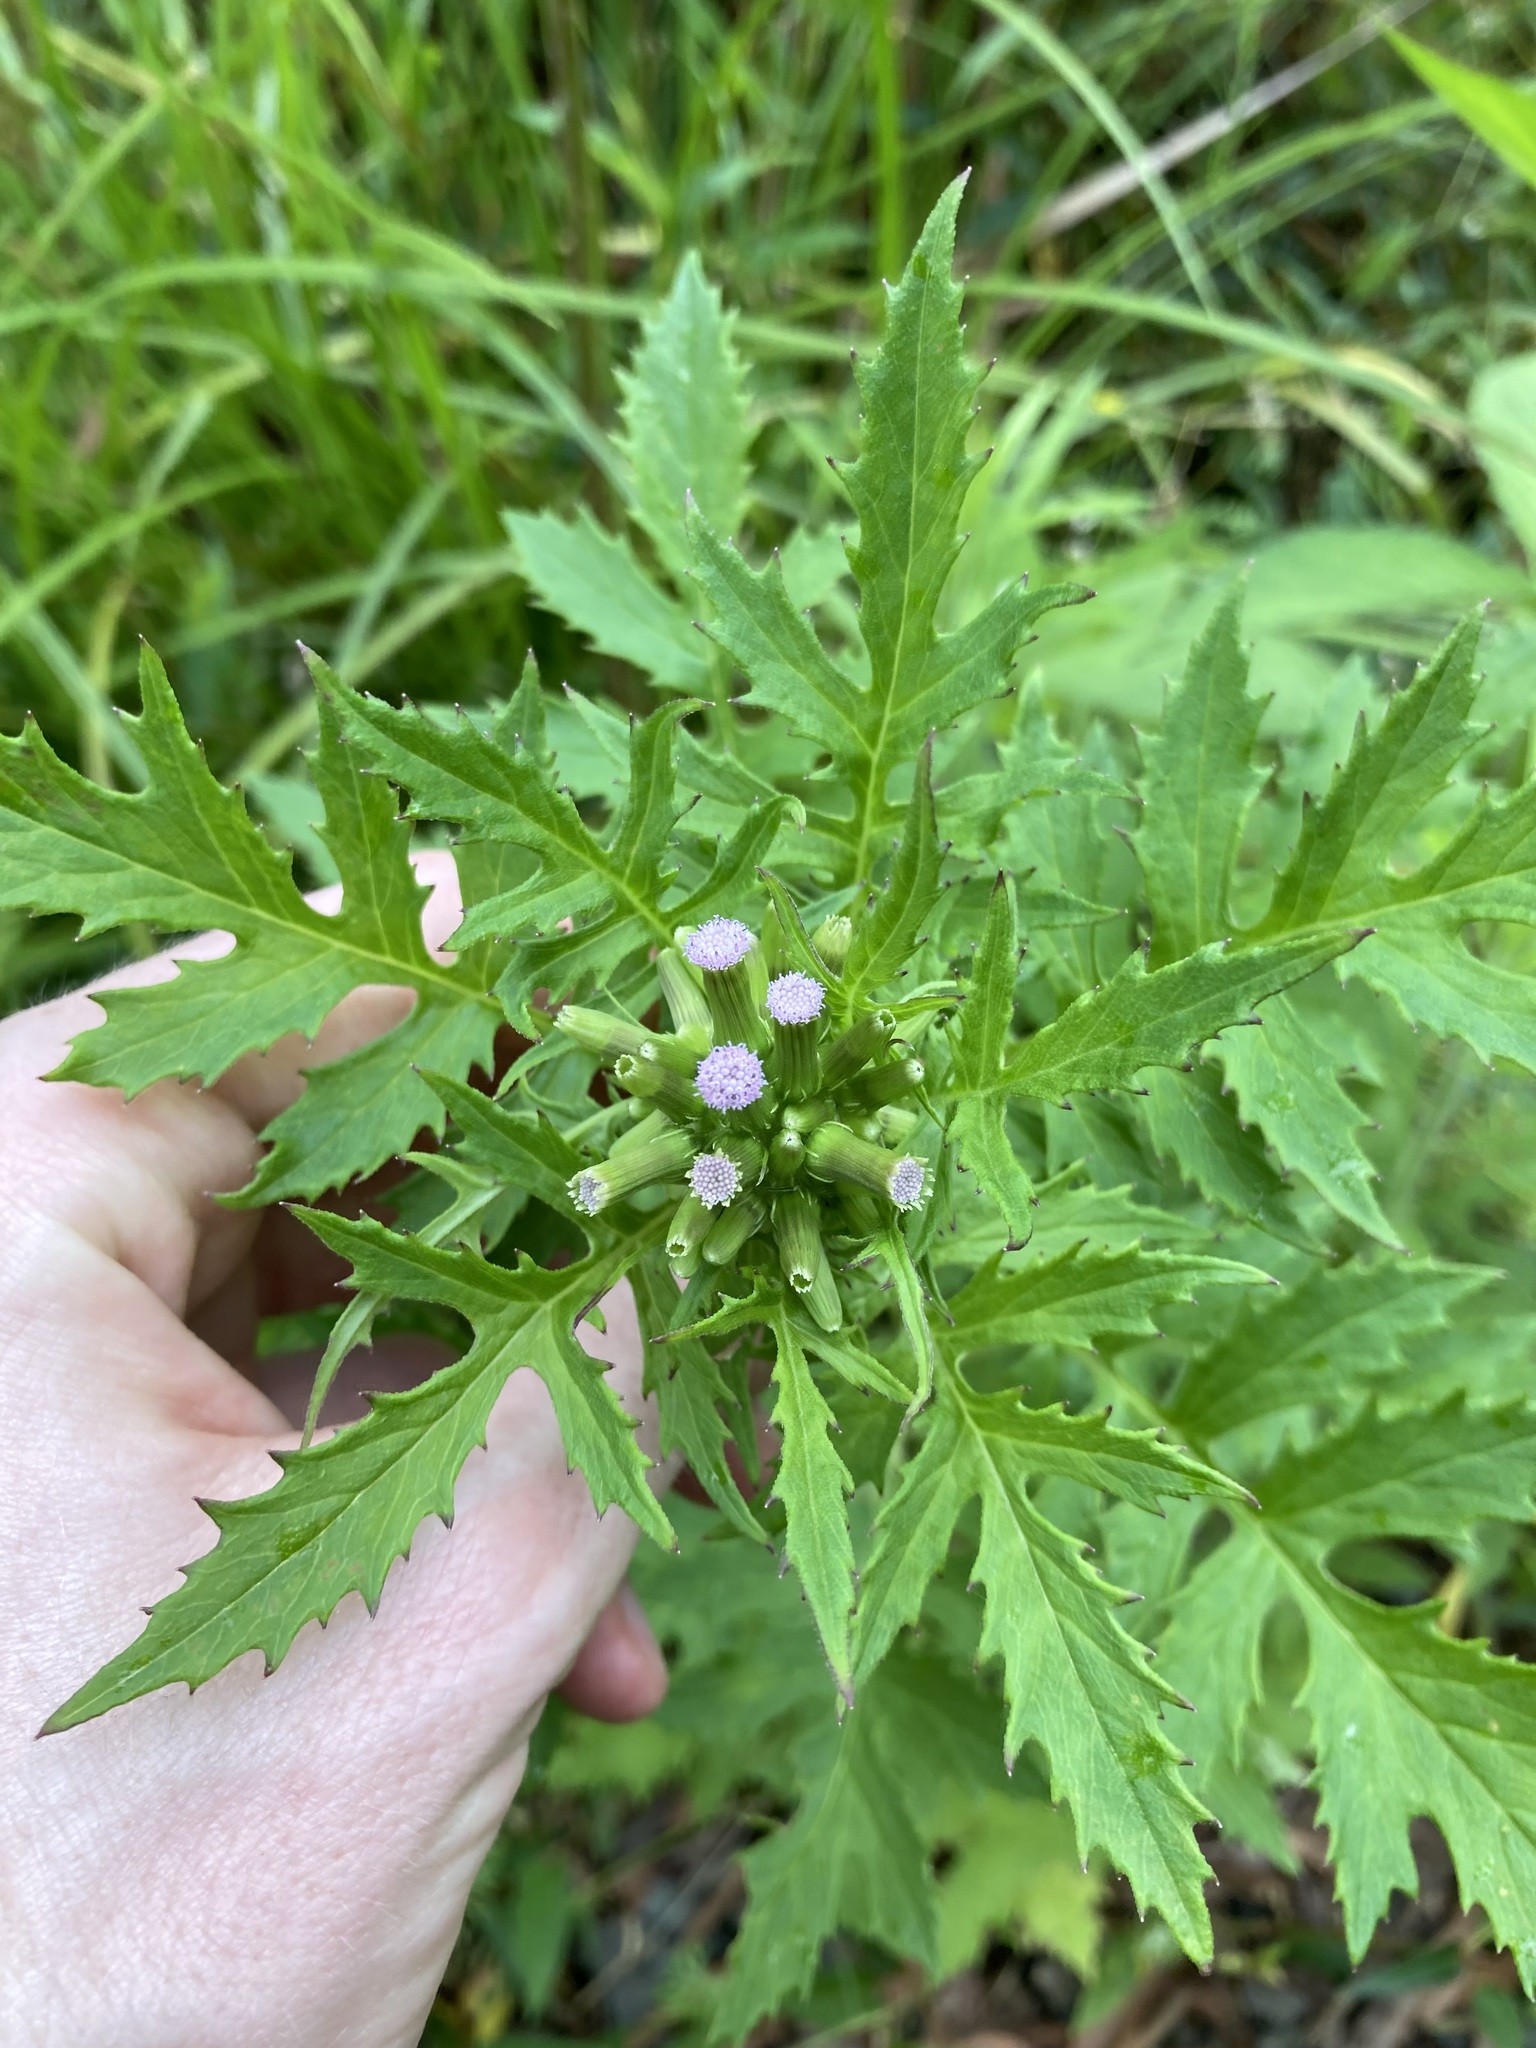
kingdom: Plantae
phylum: Tracheophyta
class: Magnoliopsida
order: Asterales
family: Asteraceae
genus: Erechtites
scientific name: Erechtites valerianifolius
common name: Tropical burnweed
